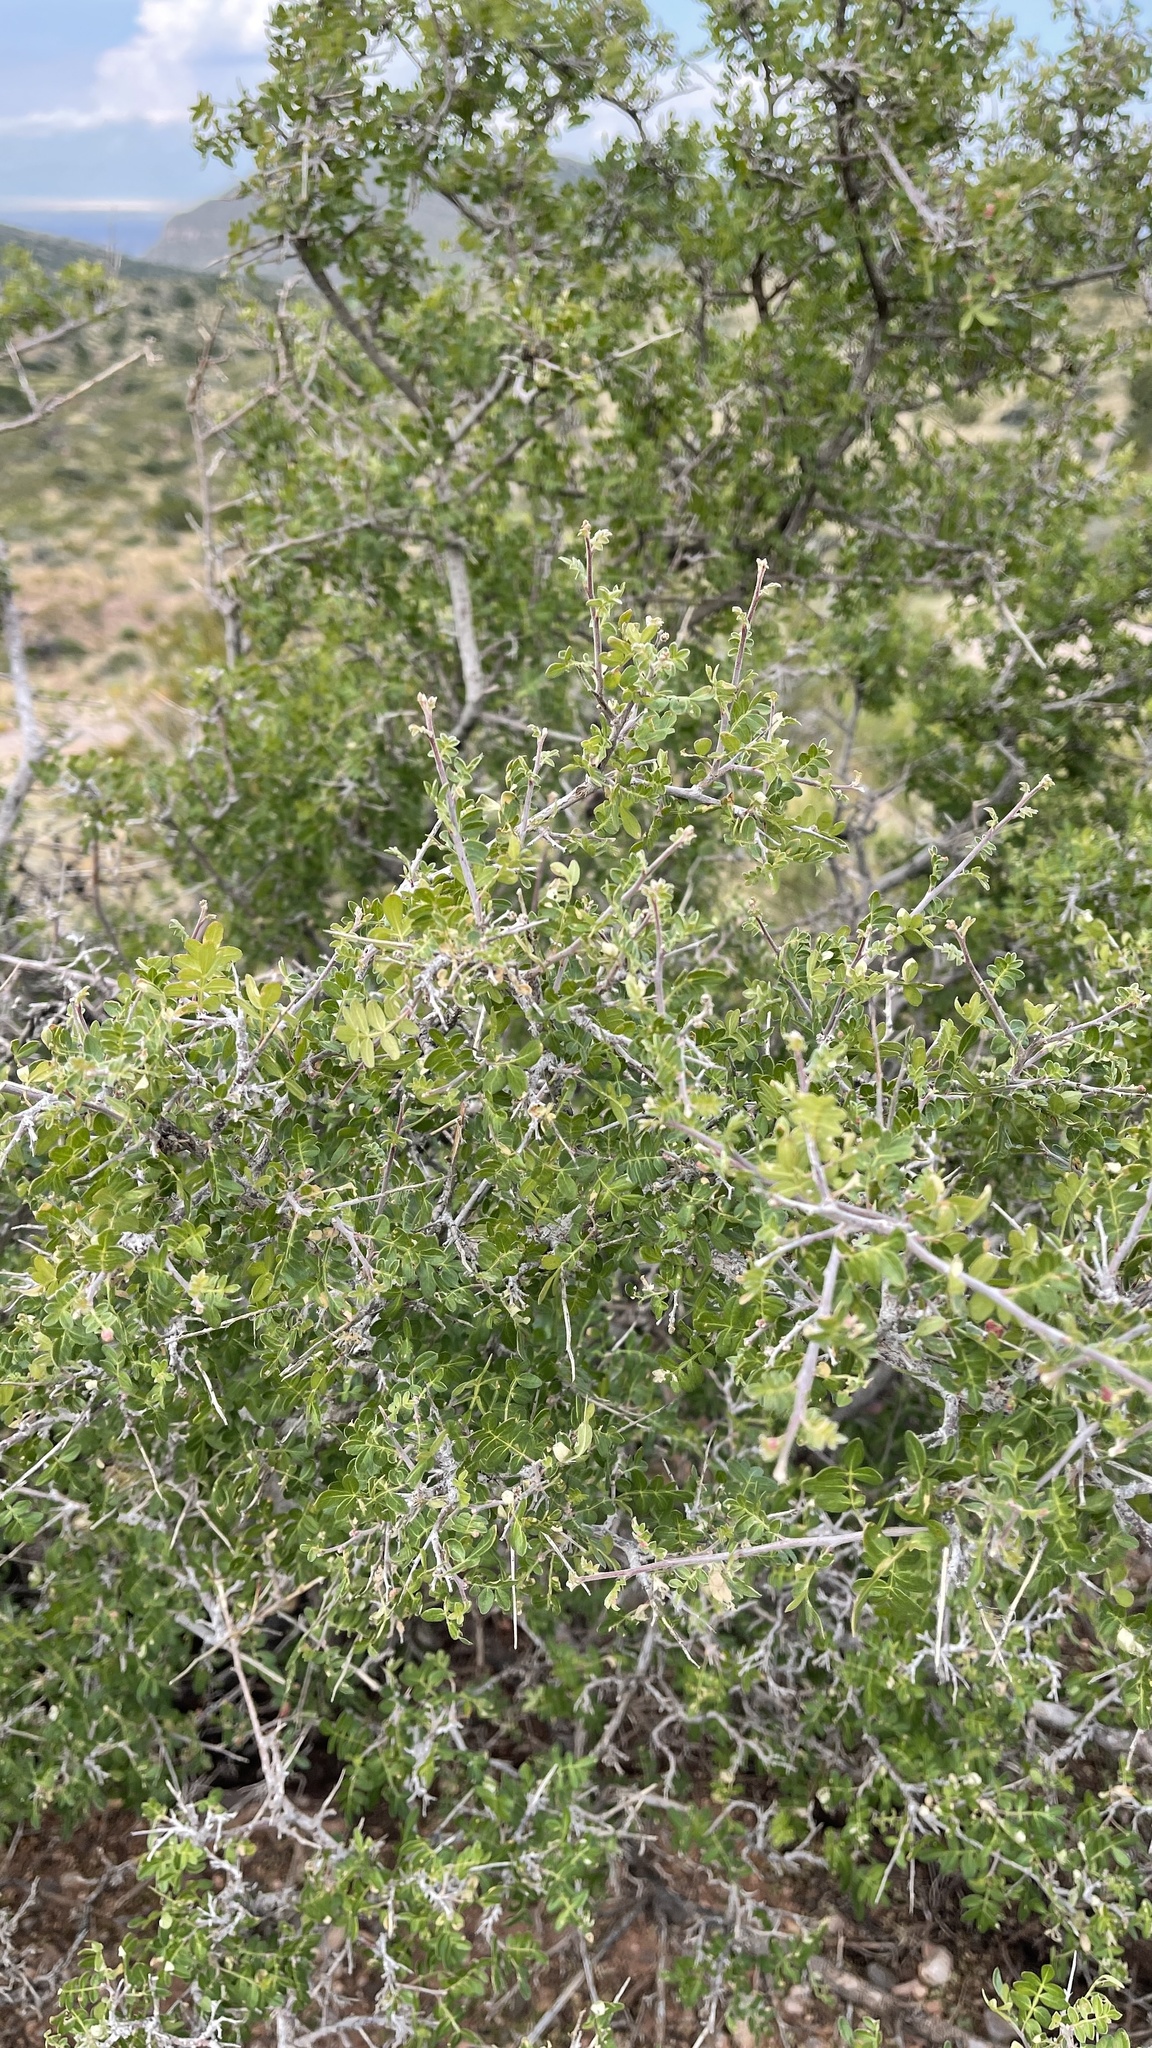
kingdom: Plantae
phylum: Tracheophyta
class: Magnoliopsida
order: Sapindales
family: Anacardiaceae
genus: Rhus
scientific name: Rhus microphylla
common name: Desert sumac
